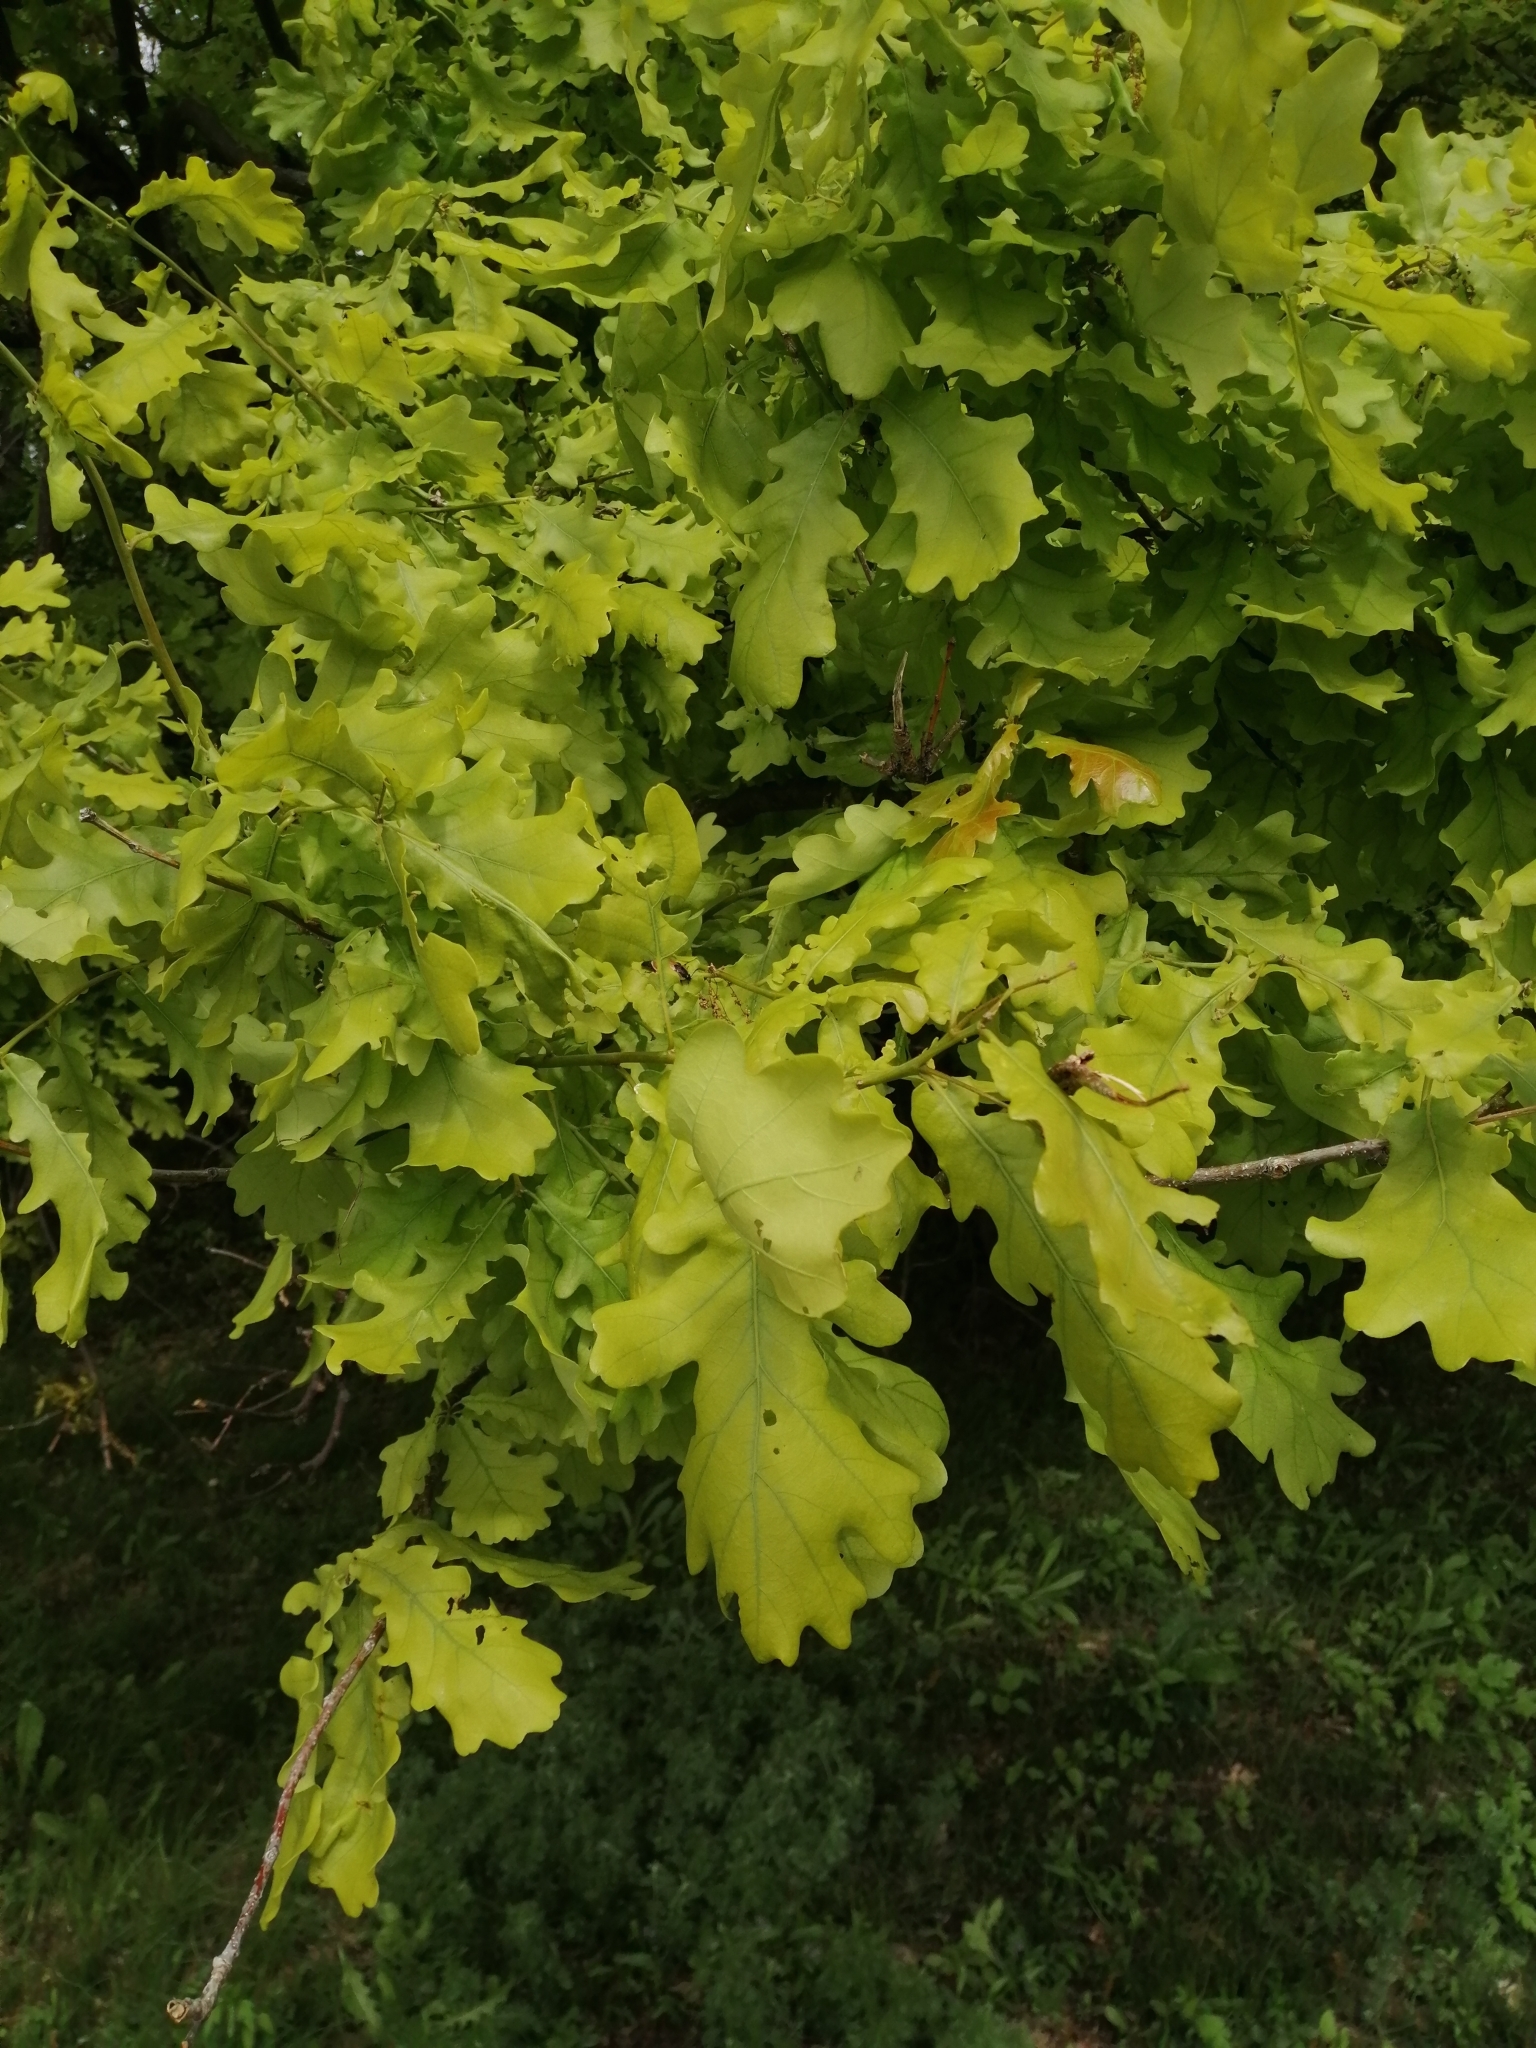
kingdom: Plantae
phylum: Tracheophyta
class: Magnoliopsida
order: Fagales
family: Fagaceae
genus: Quercus
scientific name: Quercus robur
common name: Pedunculate oak
